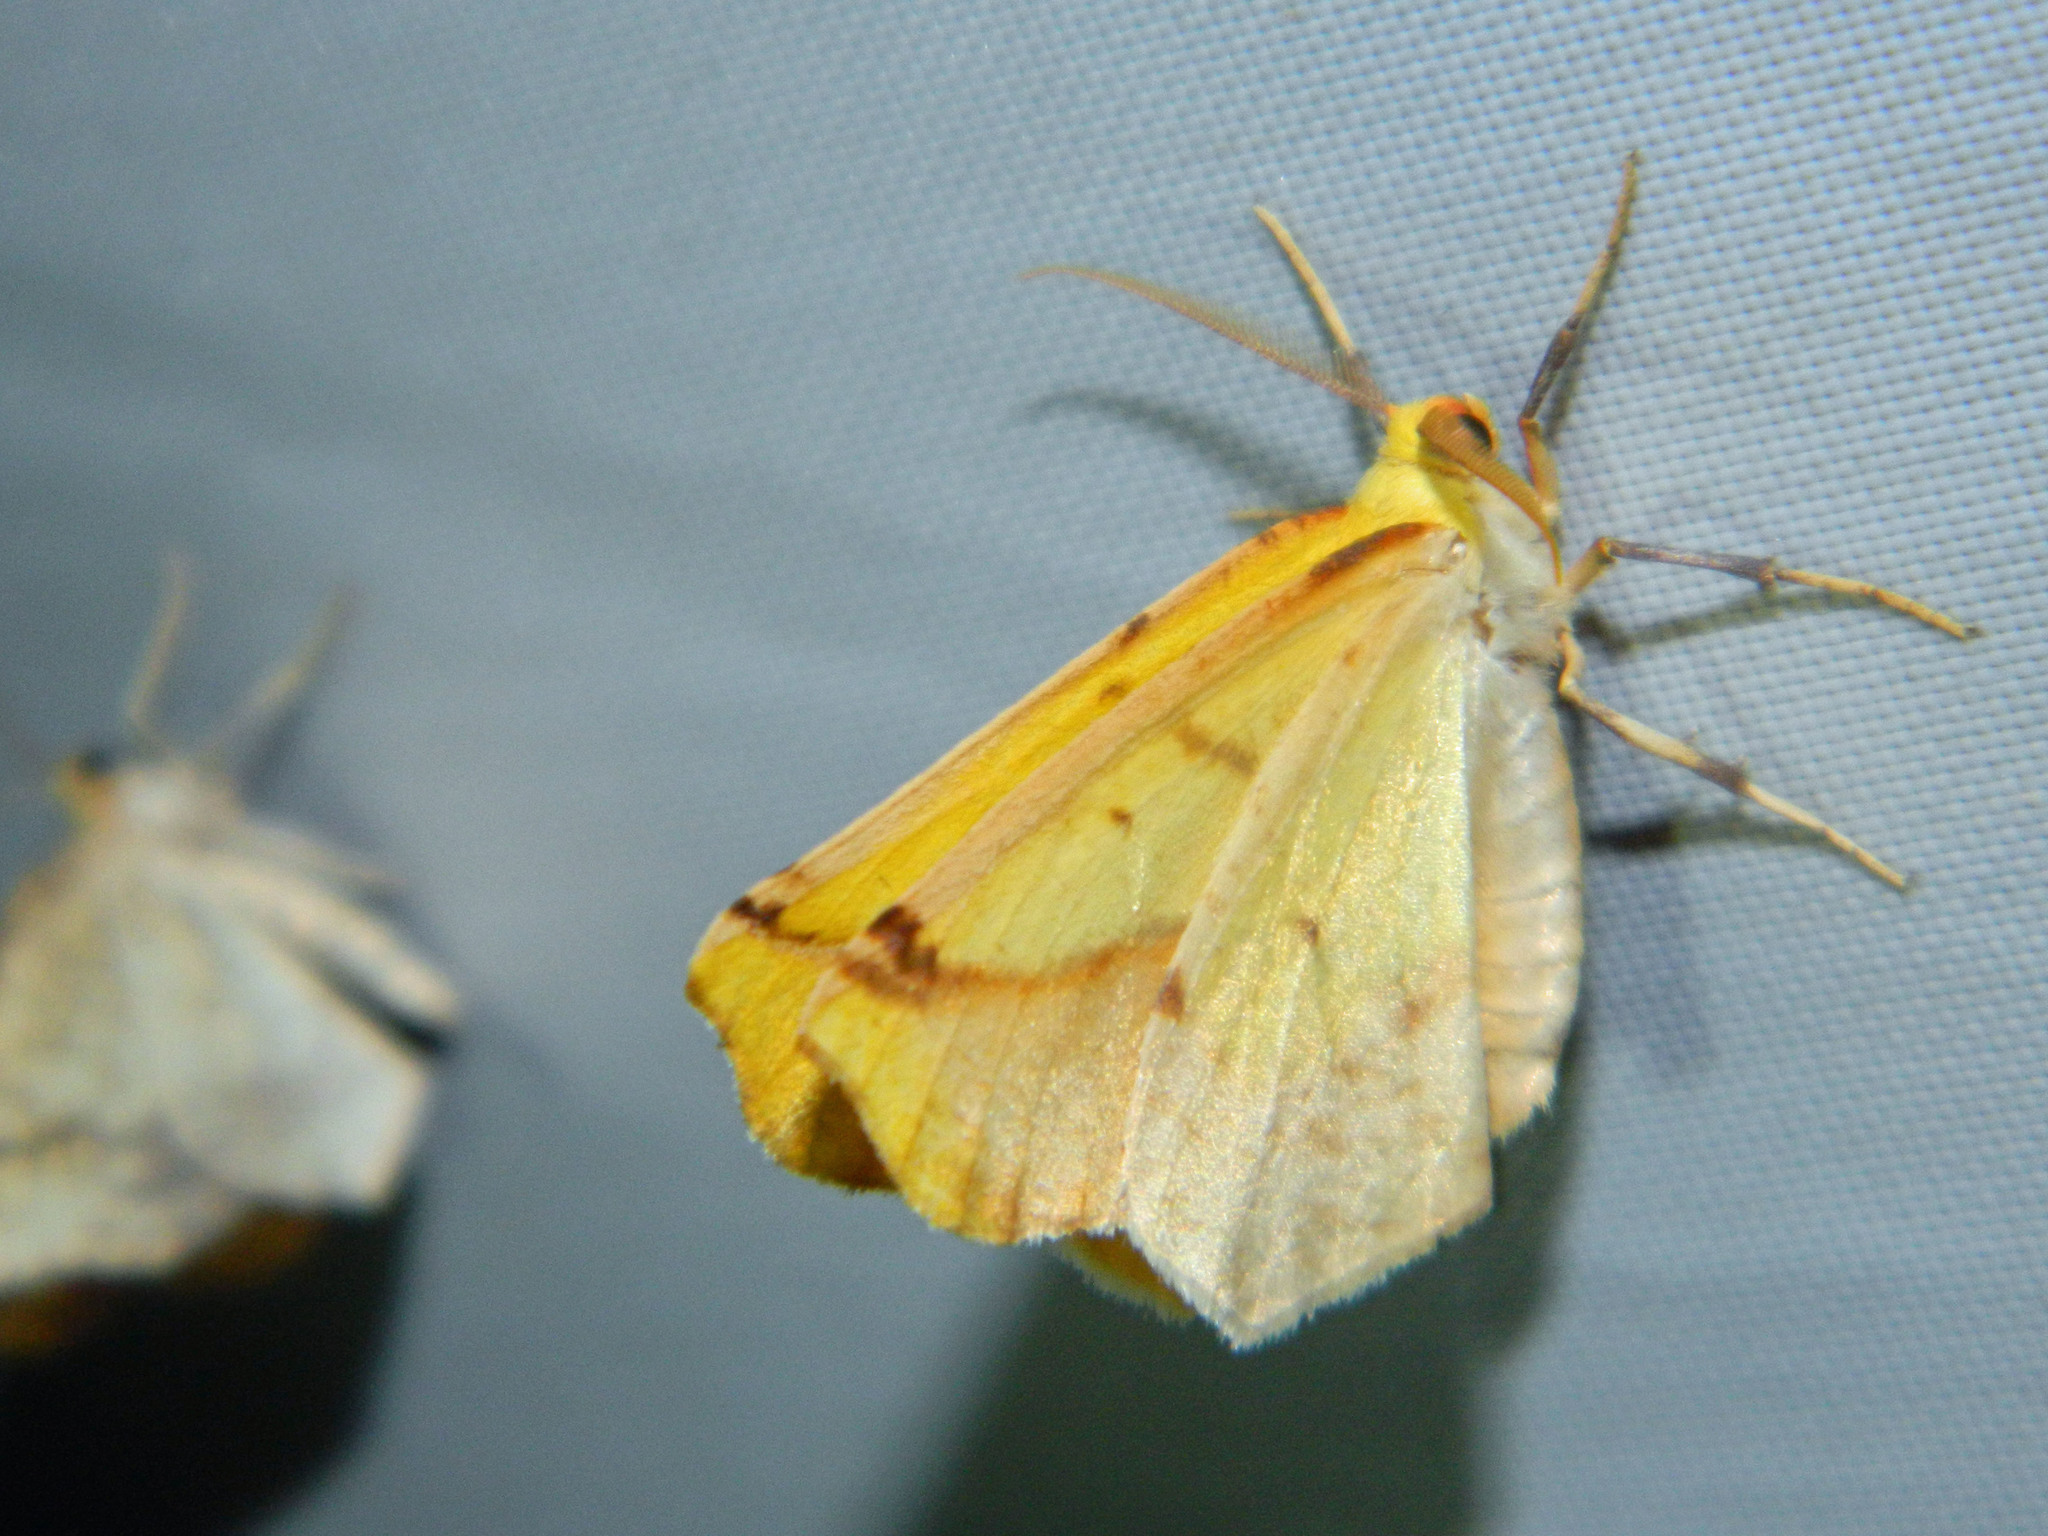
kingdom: Animalia
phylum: Arthropoda
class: Insecta
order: Lepidoptera
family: Geometridae
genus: Sicya
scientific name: Sicya macularia
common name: Sharp-lined yellow
